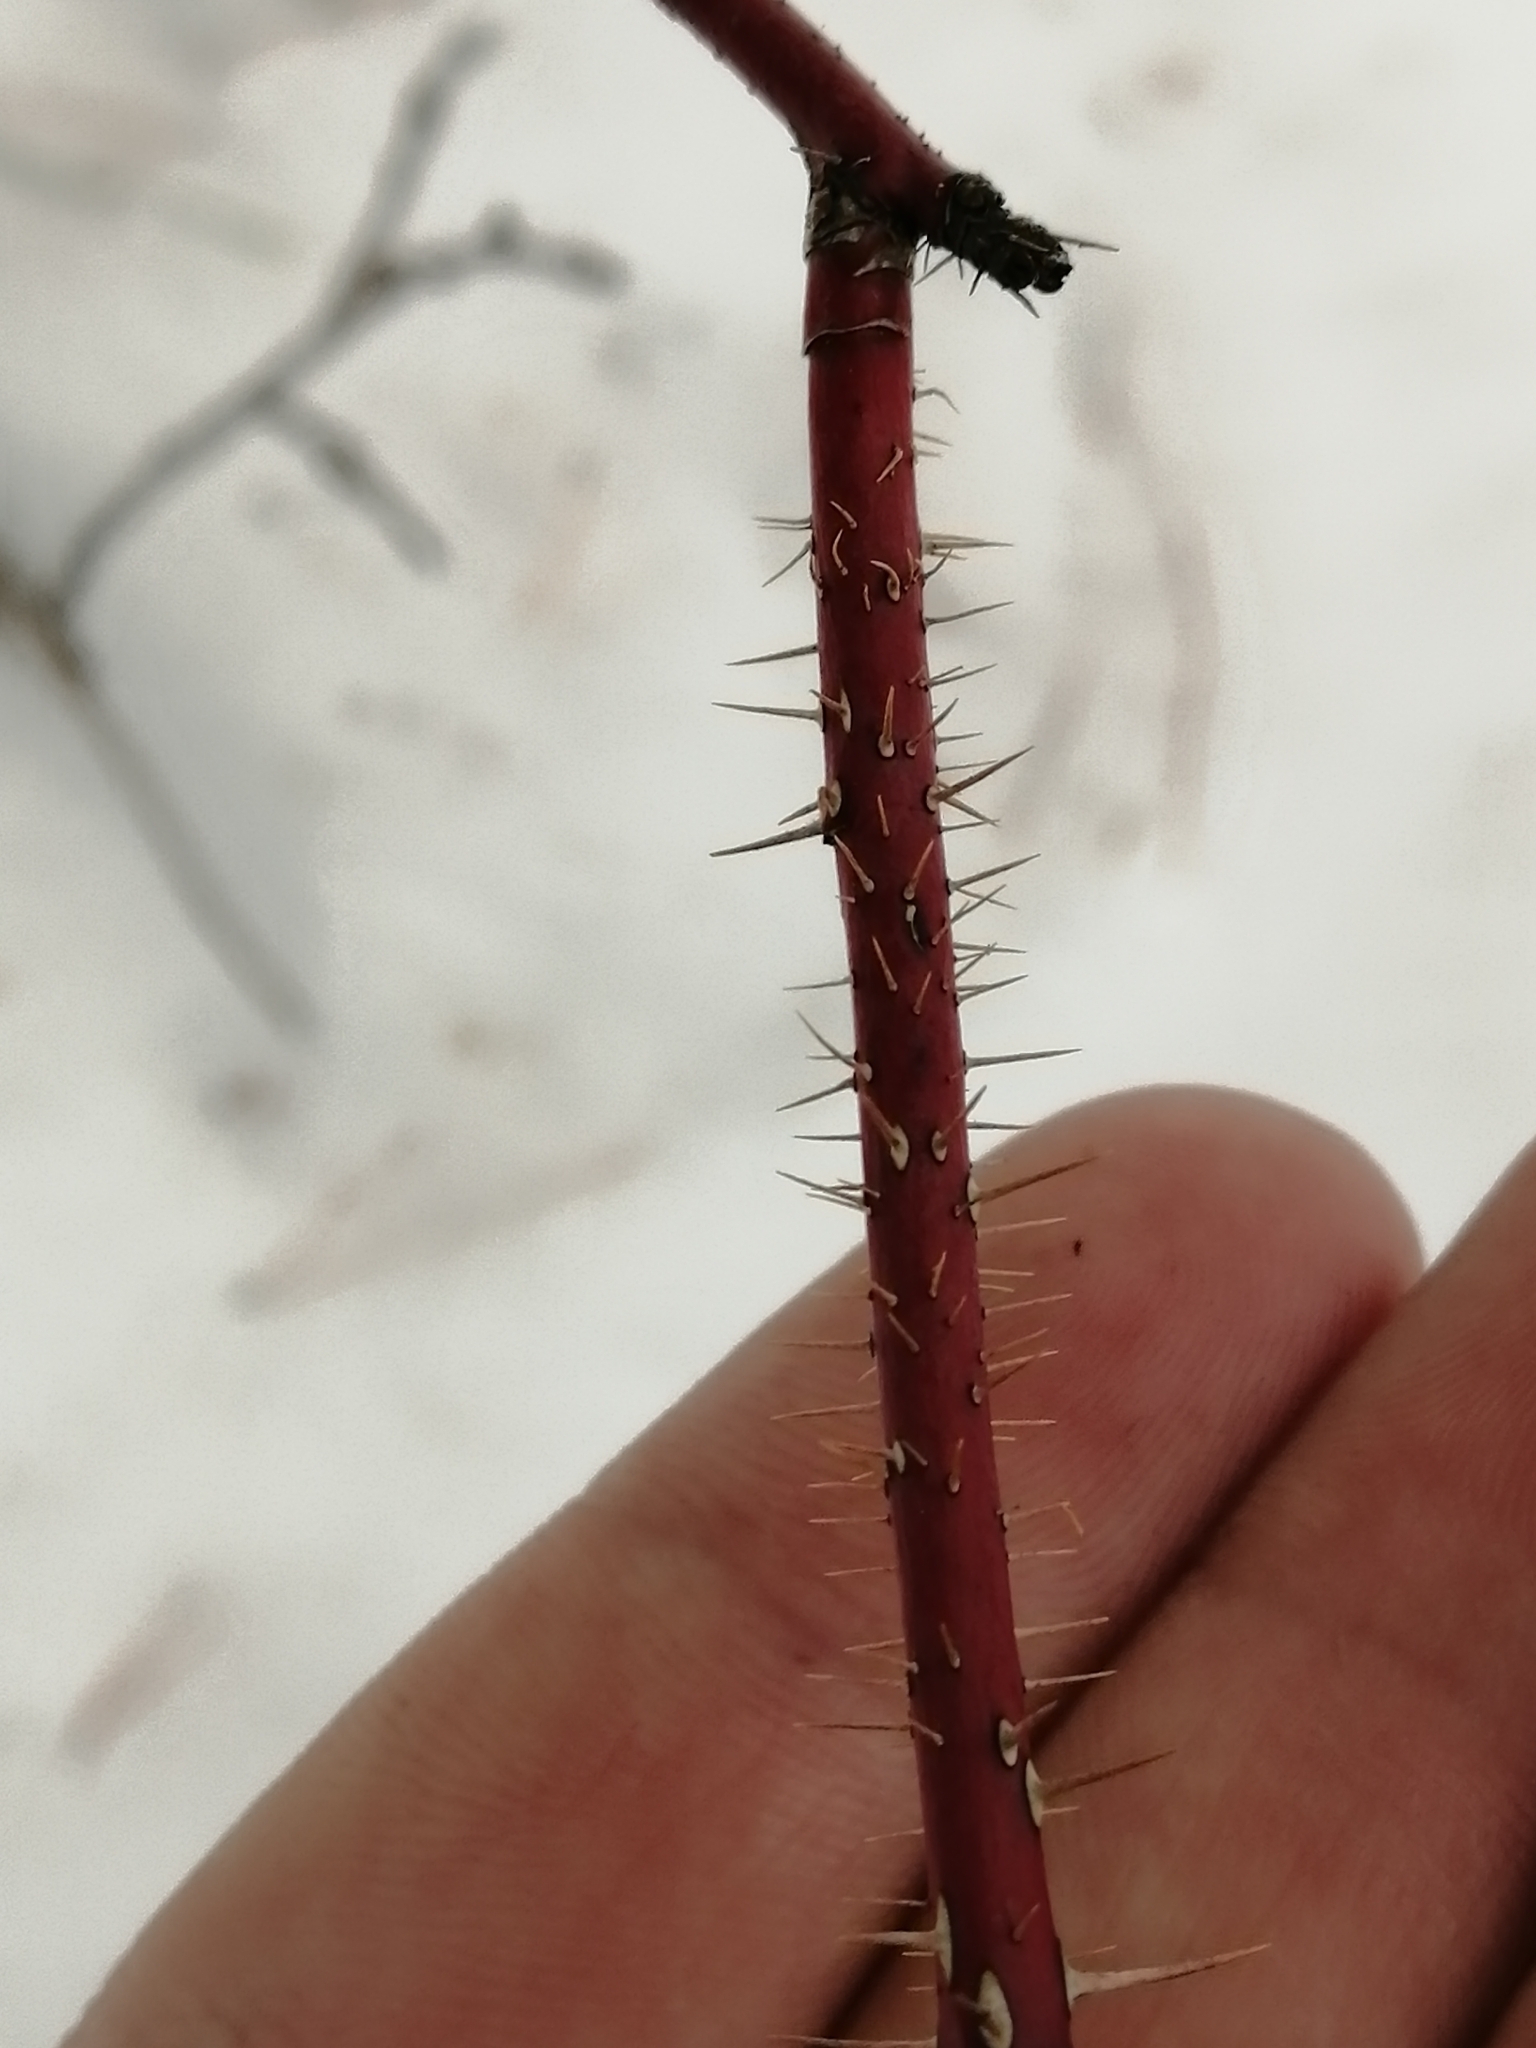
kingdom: Plantae
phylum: Tracheophyta
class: Magnoliopsida
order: Rosales
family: Rosaceae
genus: Rosa
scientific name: Rosa acicularis
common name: Prickly rose
